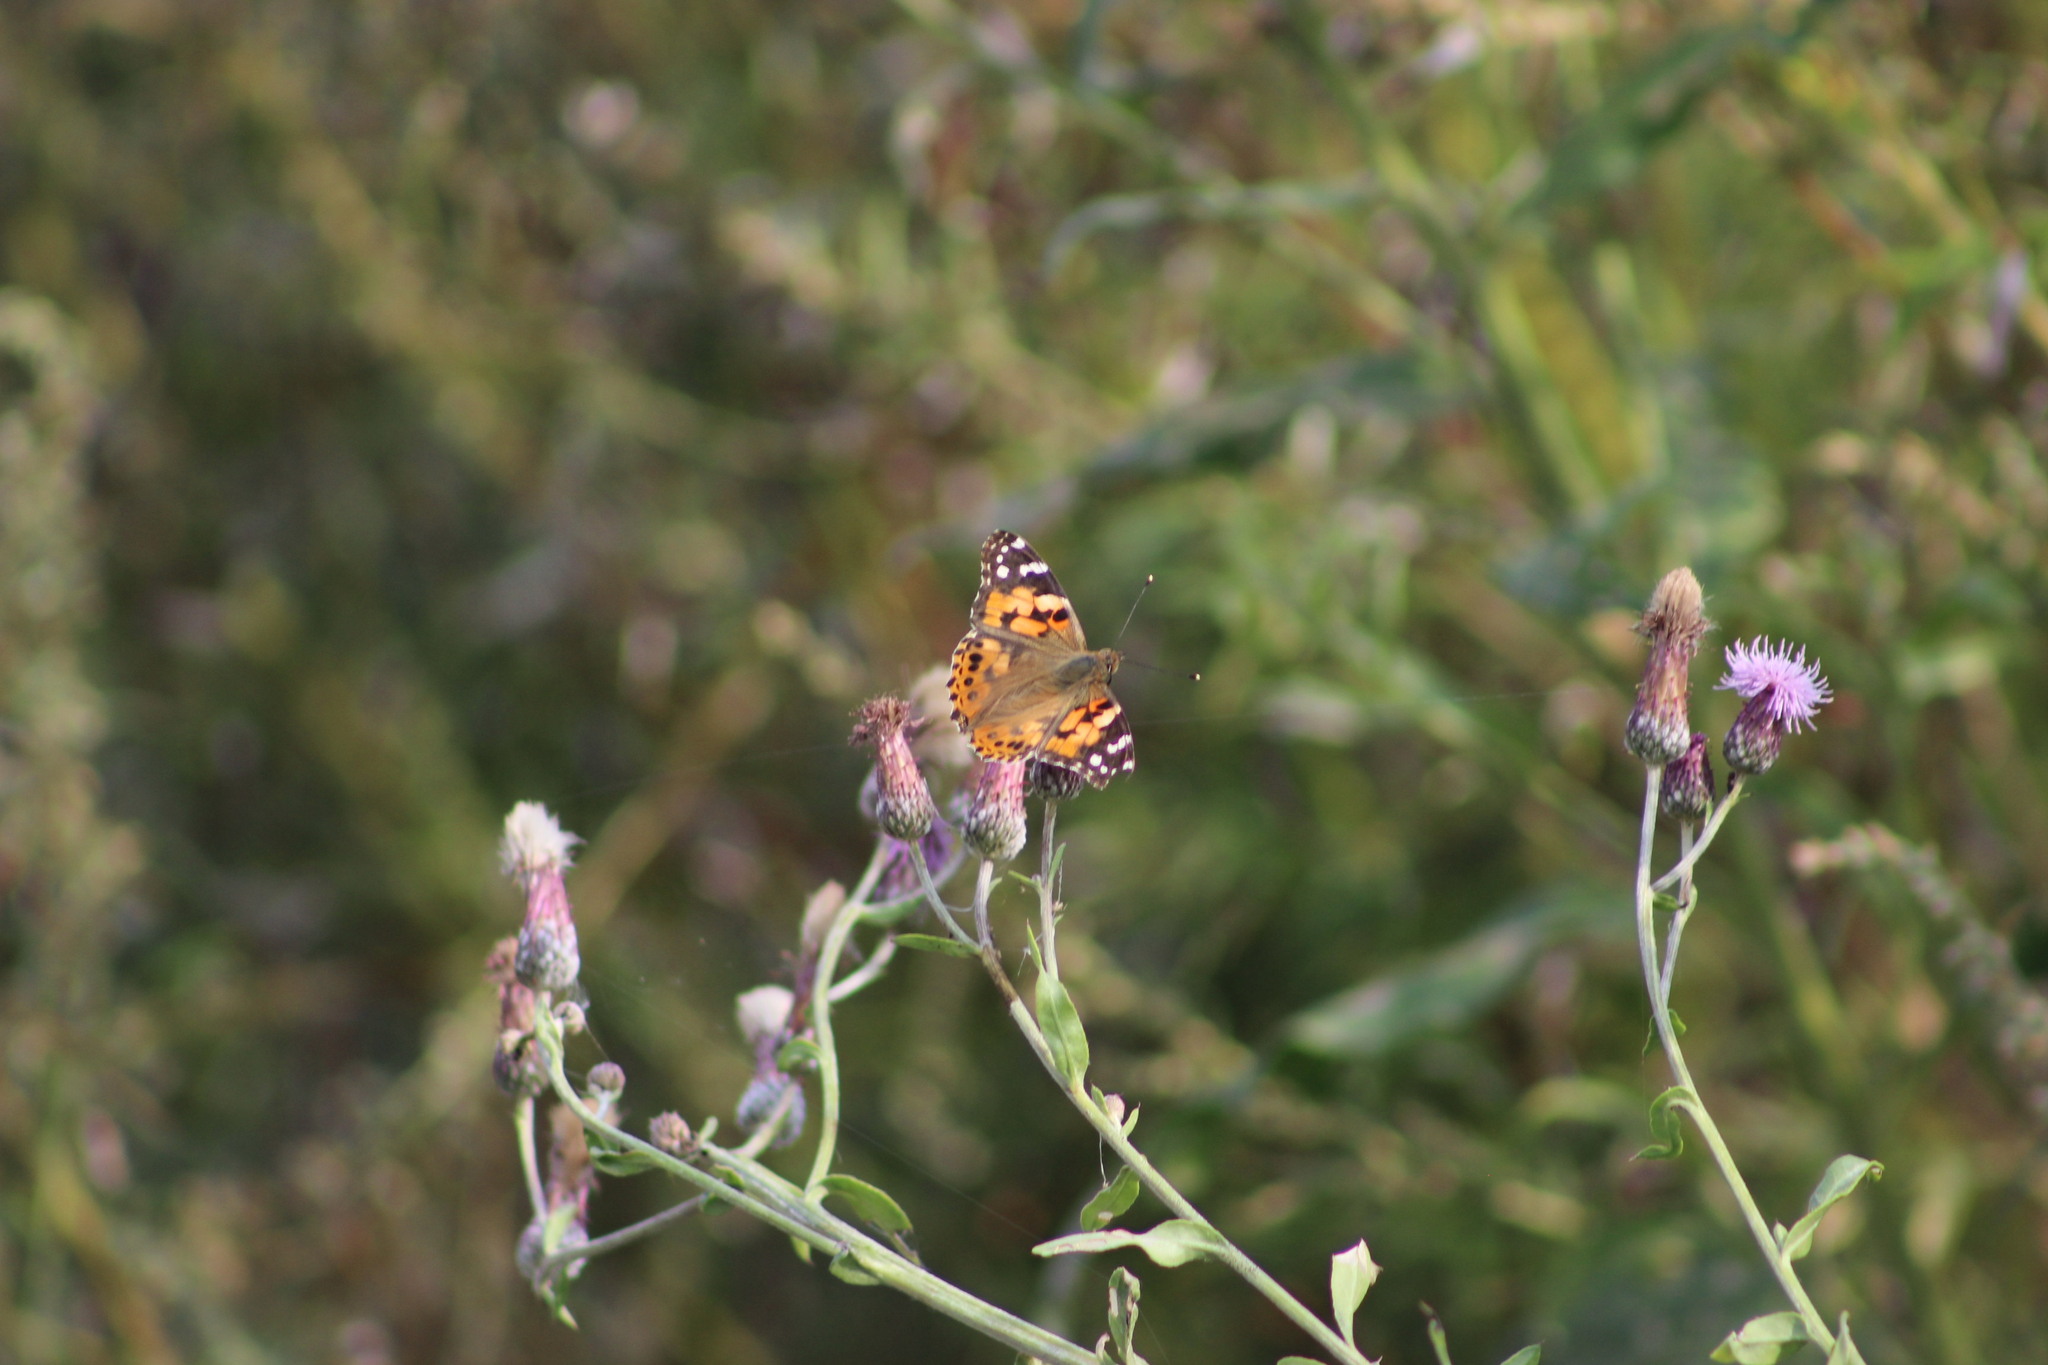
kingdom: Animalia
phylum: Arthropoda
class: Insecta
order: Lepidoptera
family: Nymphalidae
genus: Vanessa
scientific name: Vanessa cardui
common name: Painted lady
